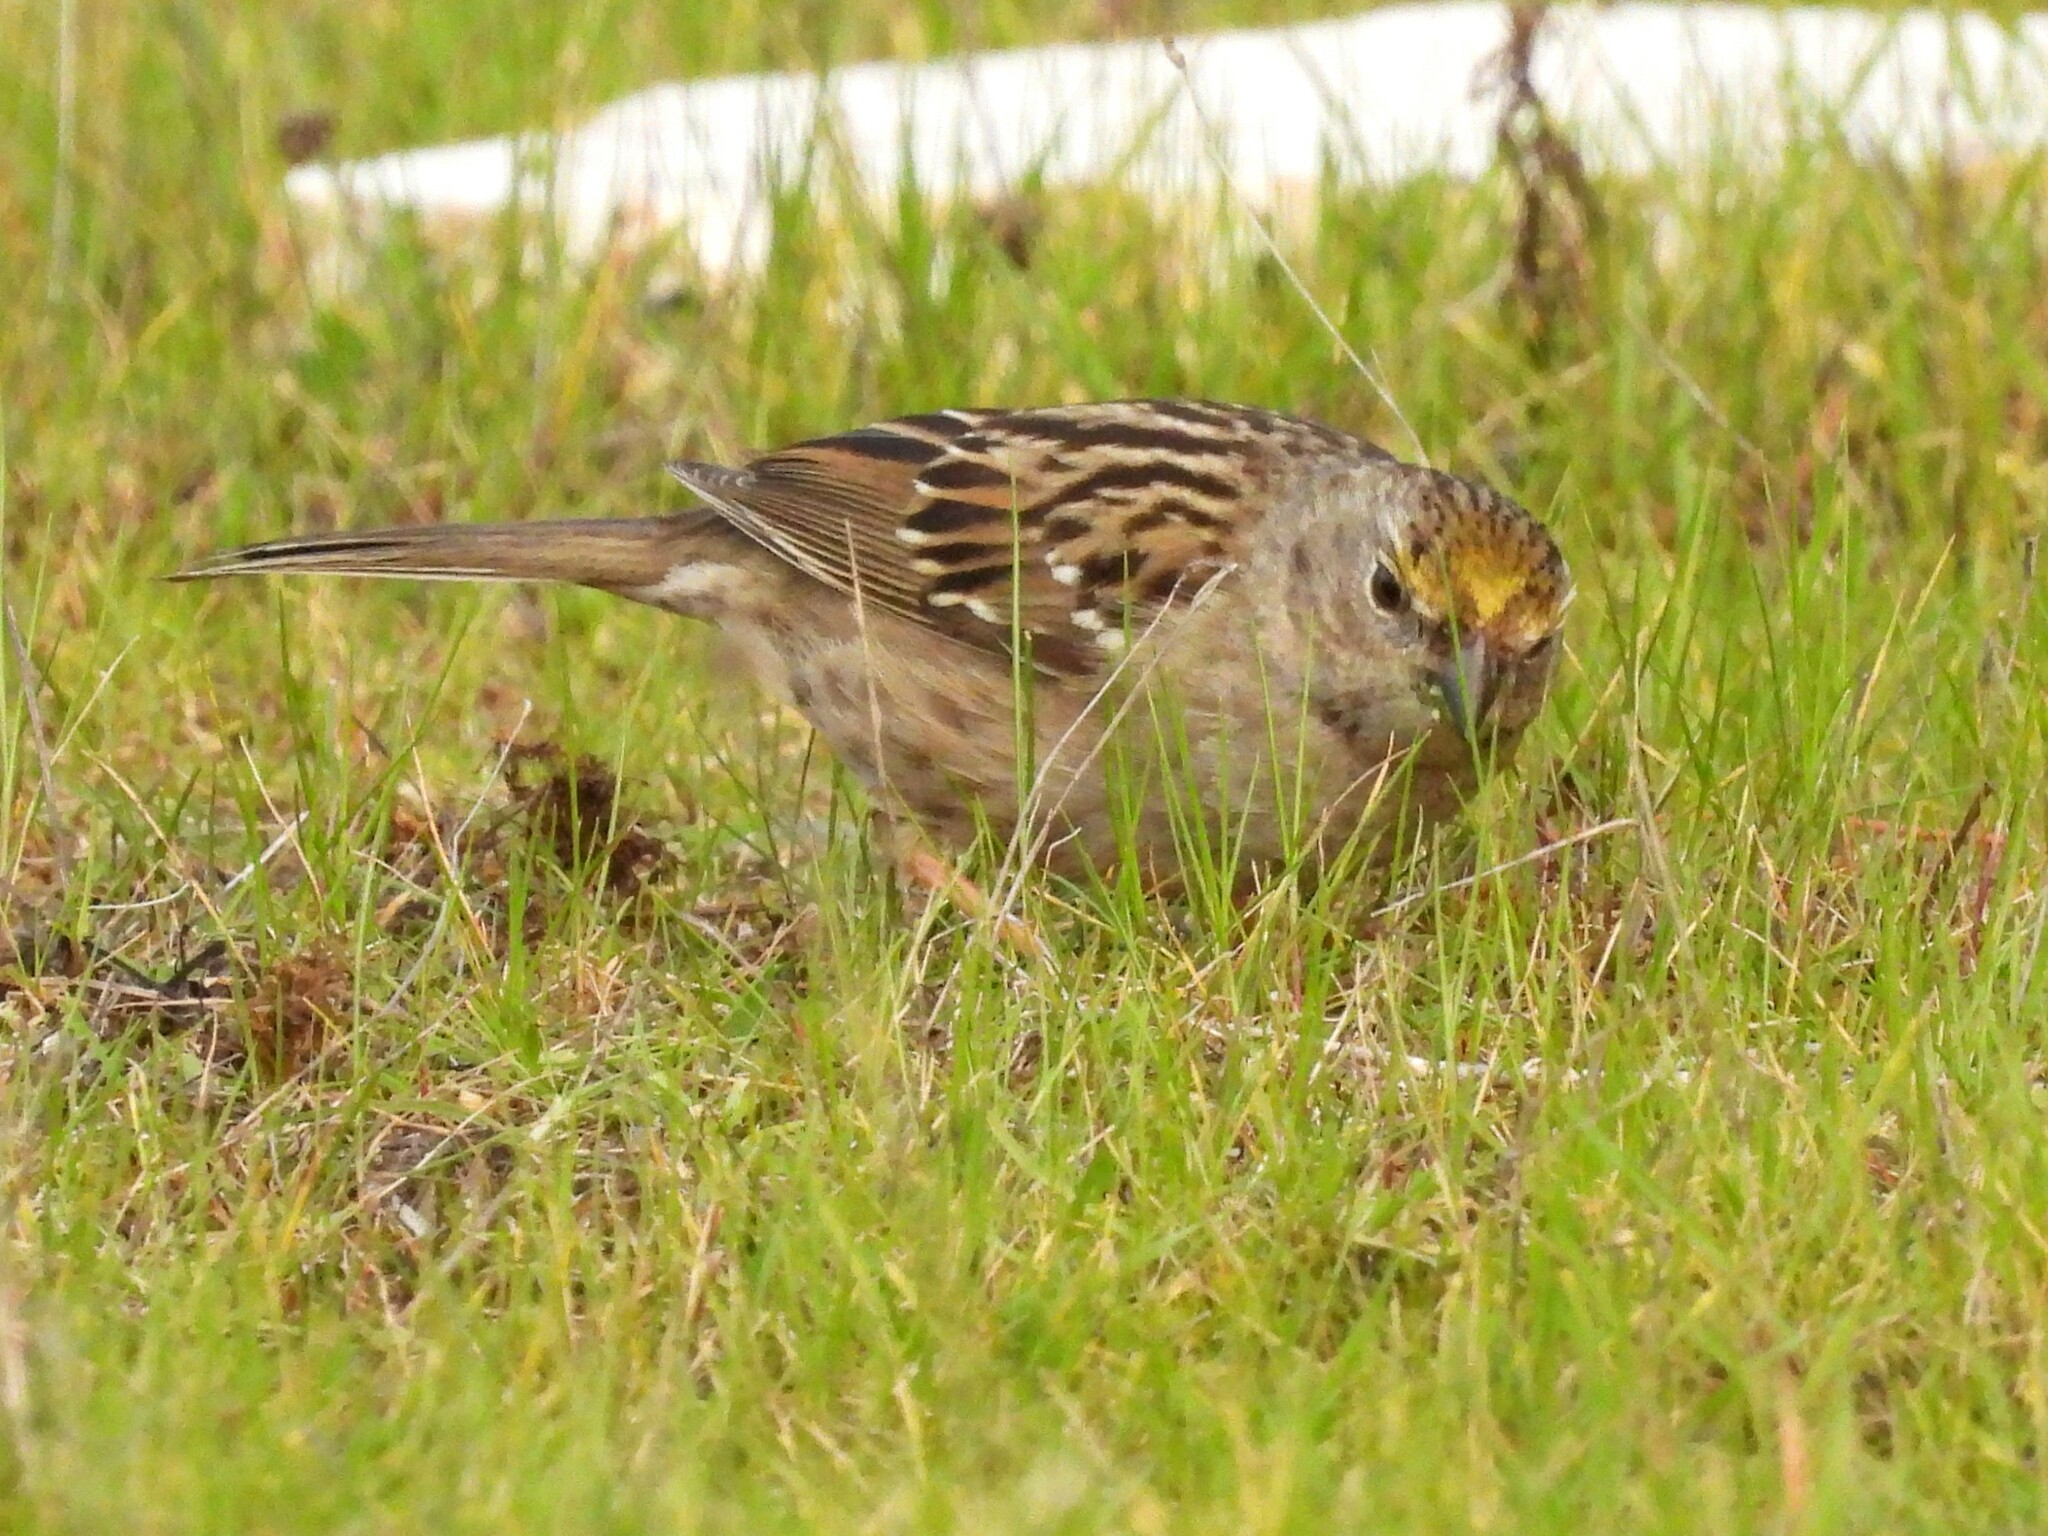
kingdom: Animalia
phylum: Chordata
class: Aves
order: Passeriformes
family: Passerellidae
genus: Zonotrichia
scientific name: Zonotrichia atricapilla
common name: Golden-crowned sparrow
